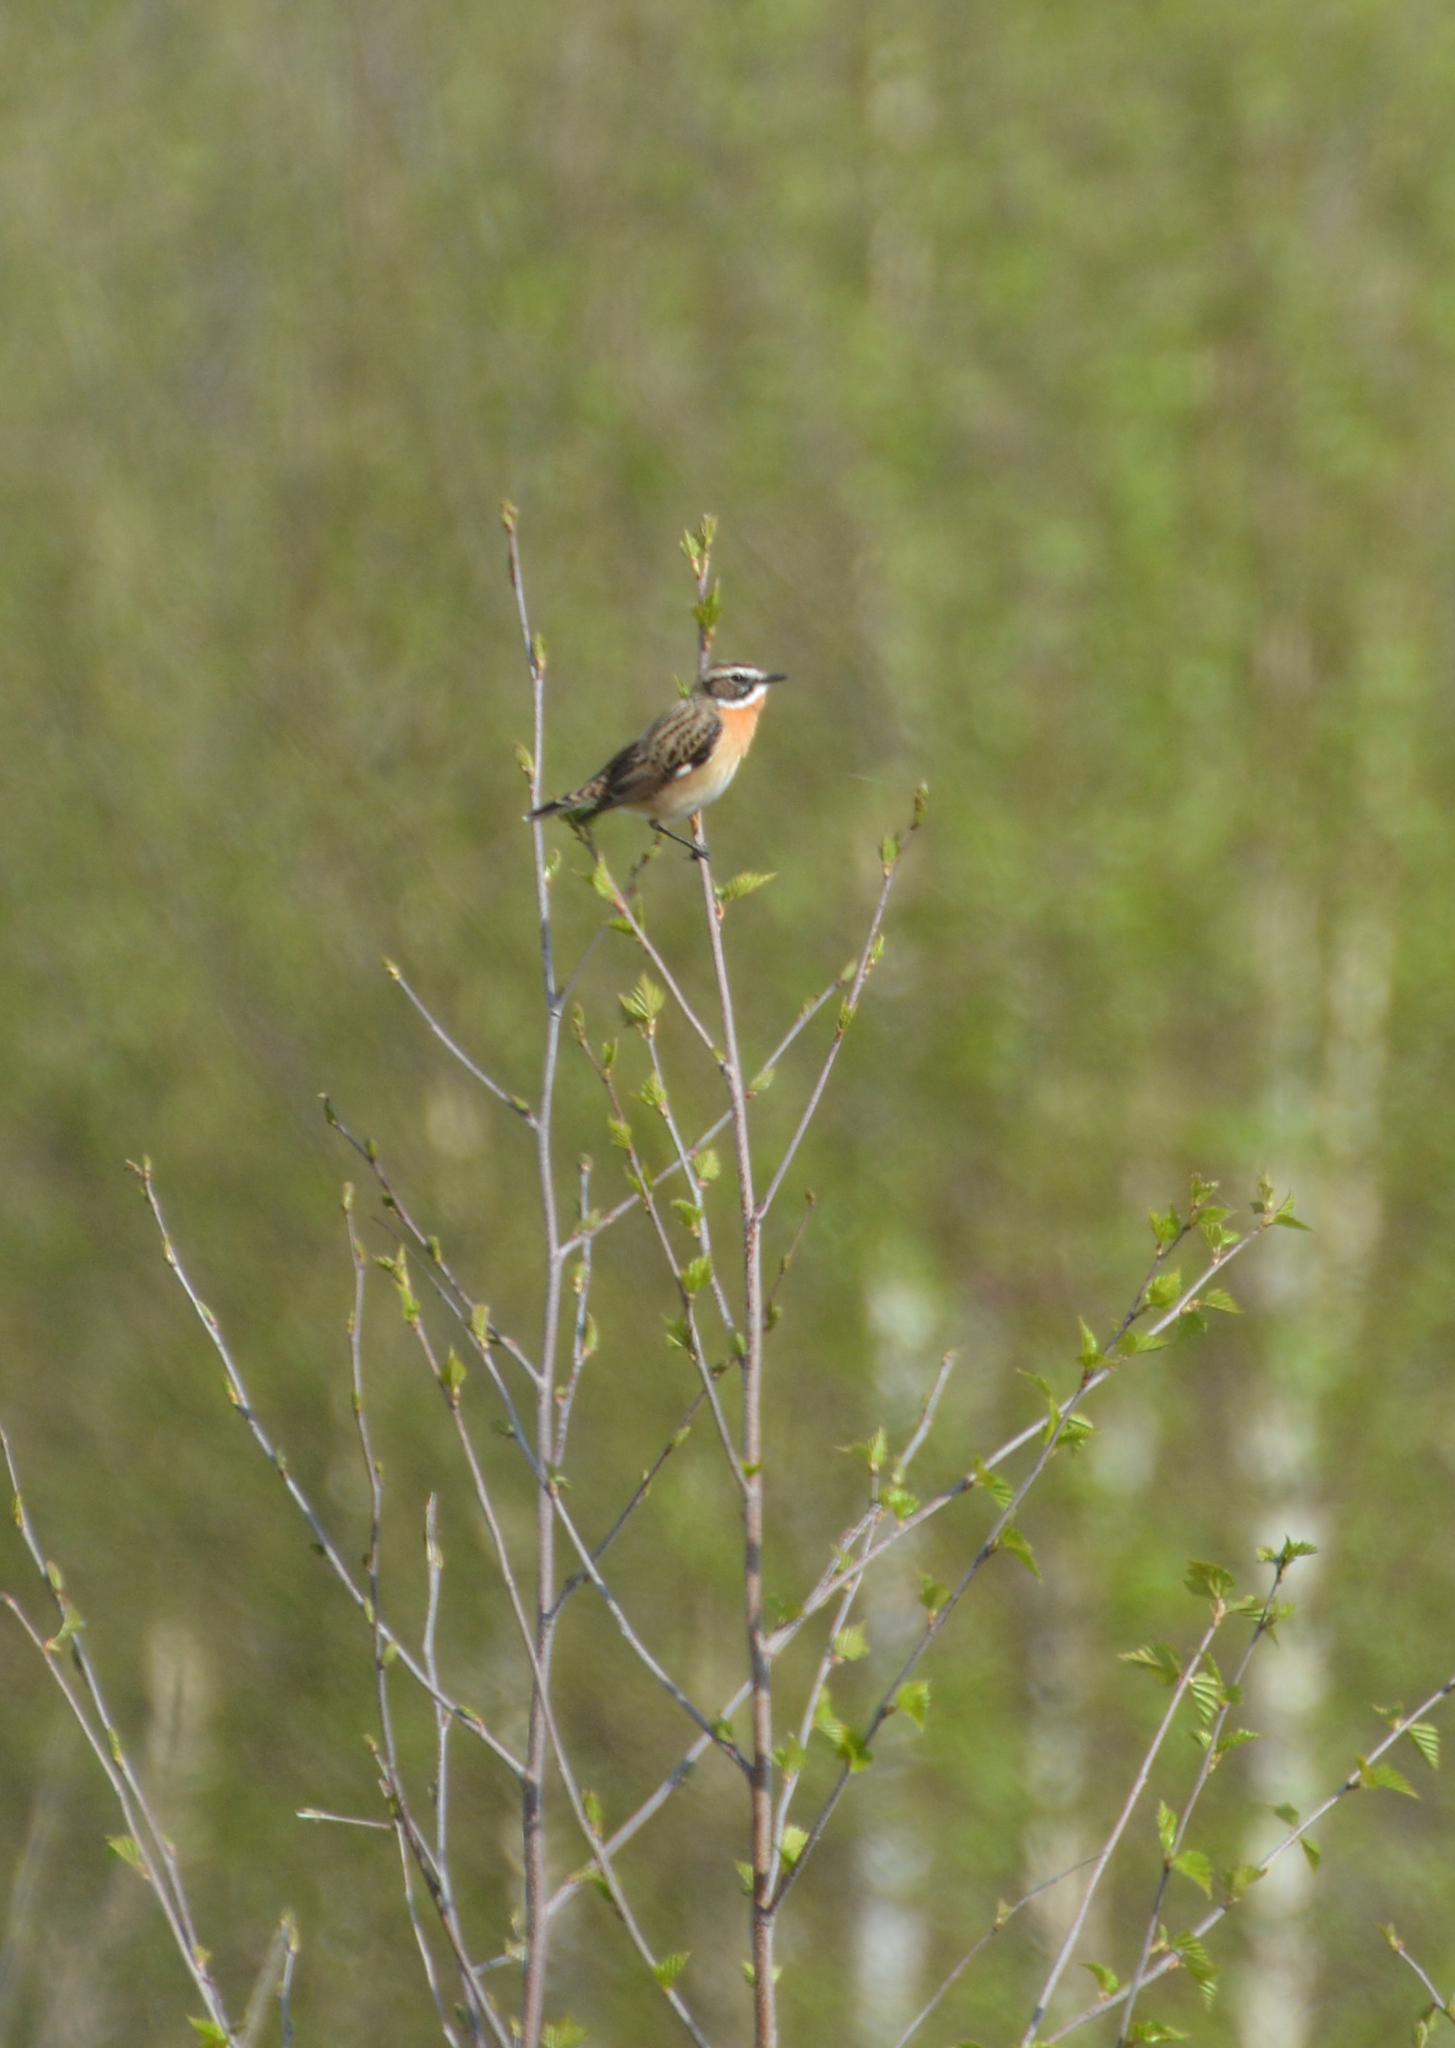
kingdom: Animalia
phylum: Chordata
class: Aves
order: Passeriformes
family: Muscicapidae
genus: Saxicola
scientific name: Saxicola rubetra
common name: Whinchat
